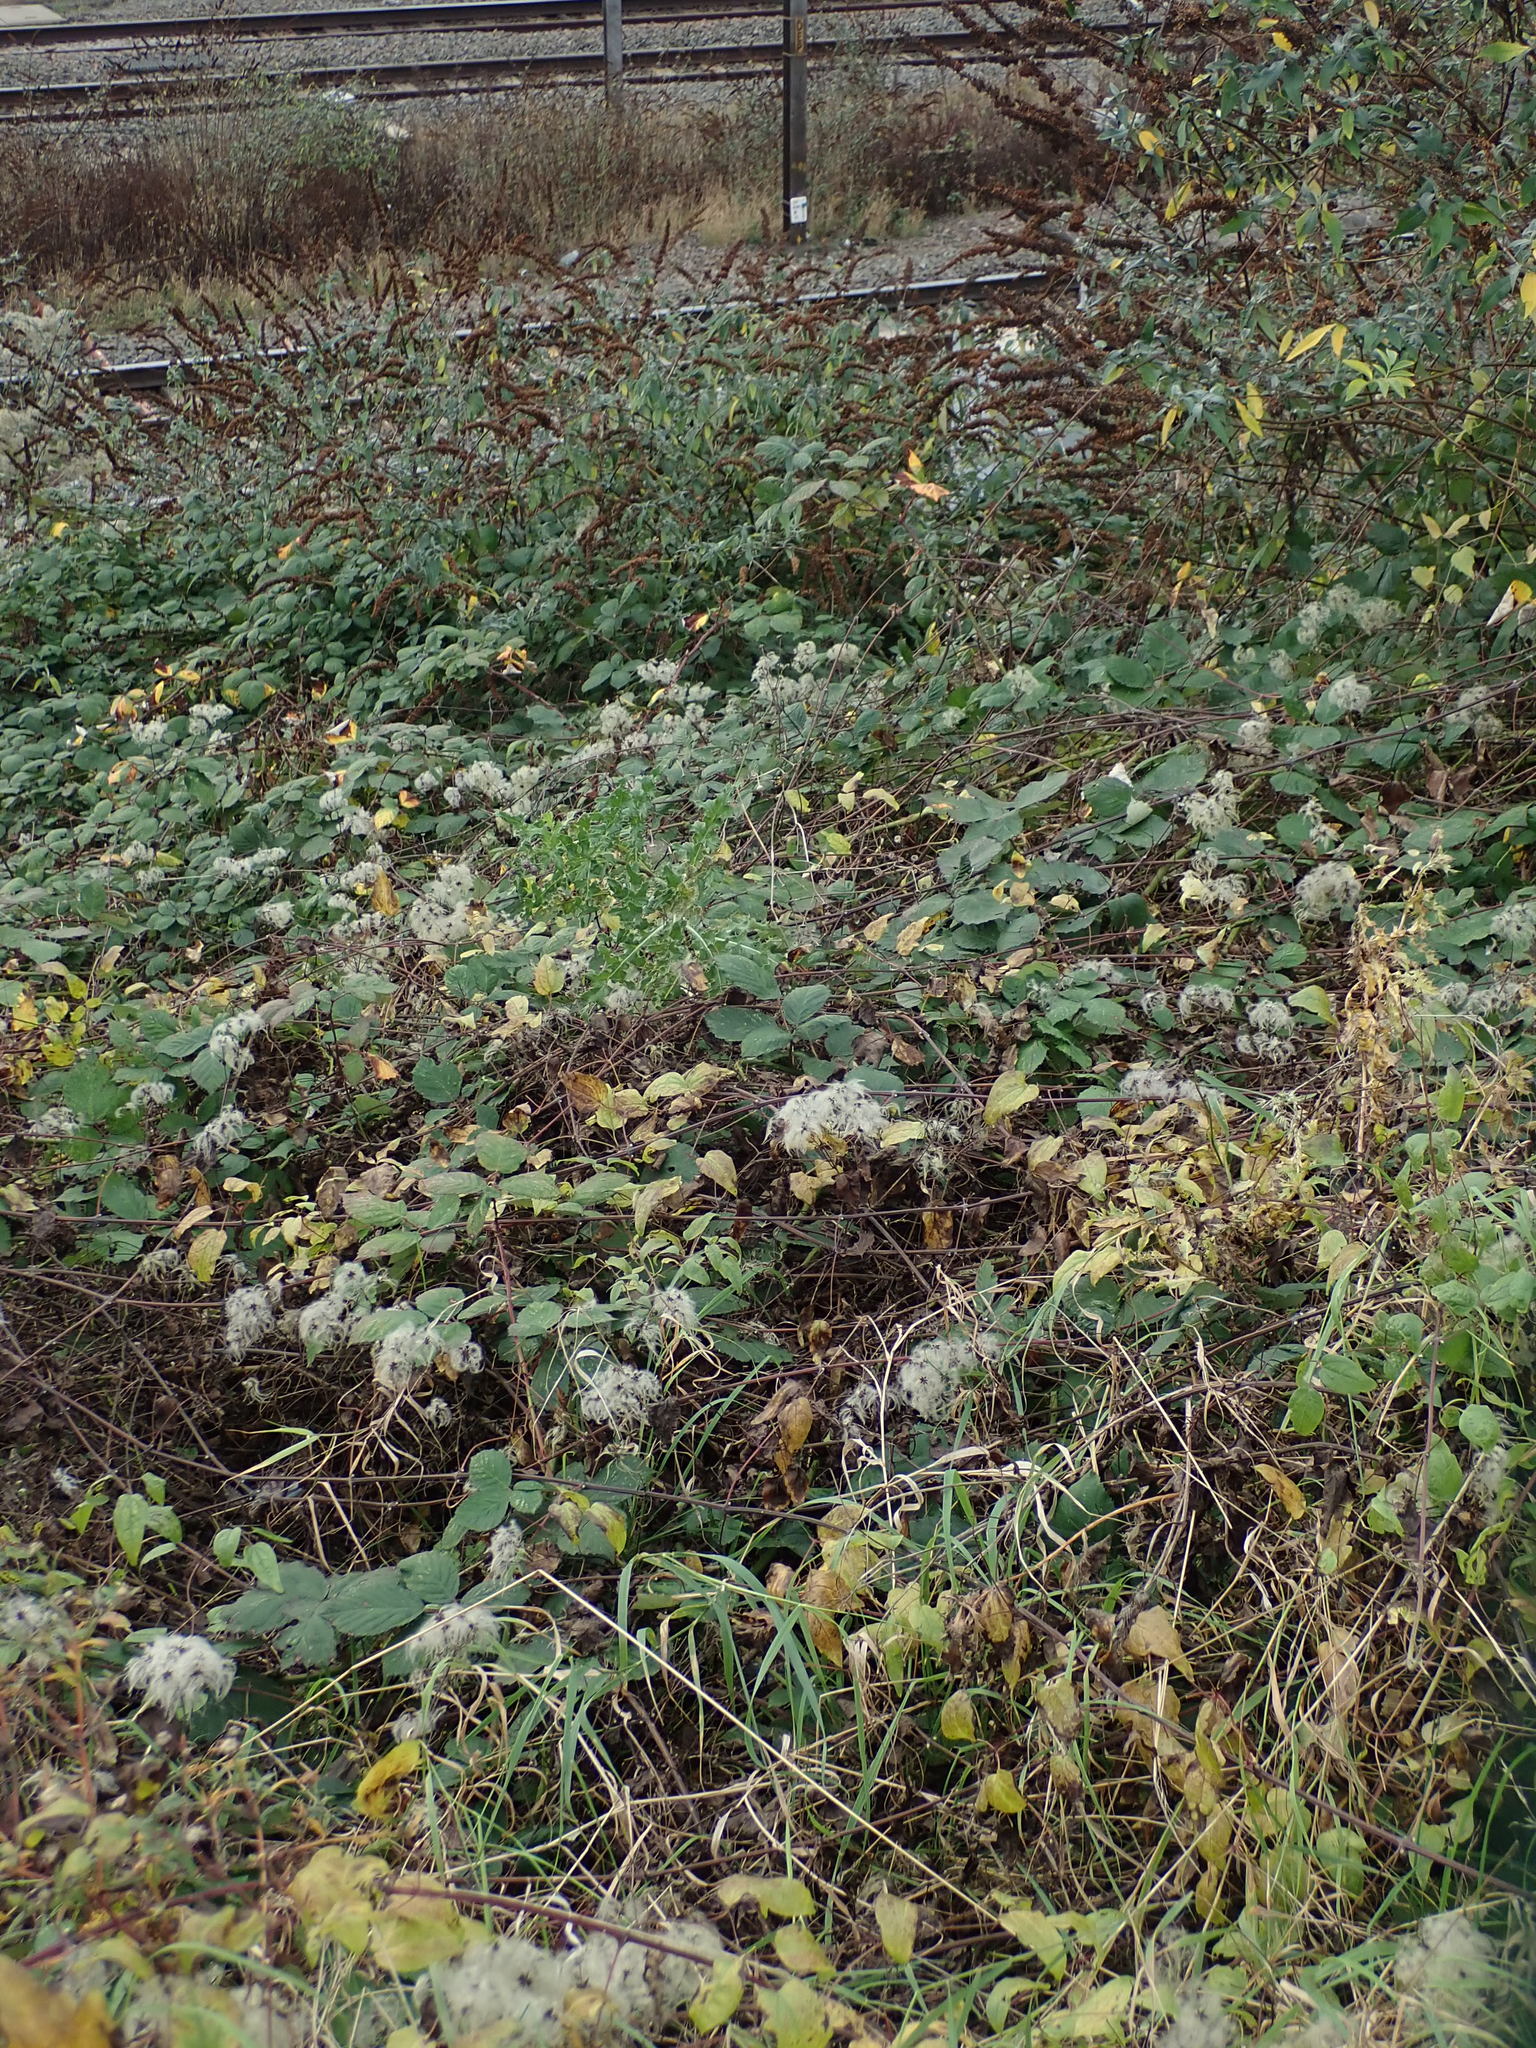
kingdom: Plantae
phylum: Tracheophyta
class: Magnoliopsida
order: Ranunculales
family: Ranunculaceae
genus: Clematis
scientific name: Clematis vitalba
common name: Evergreen clematis
